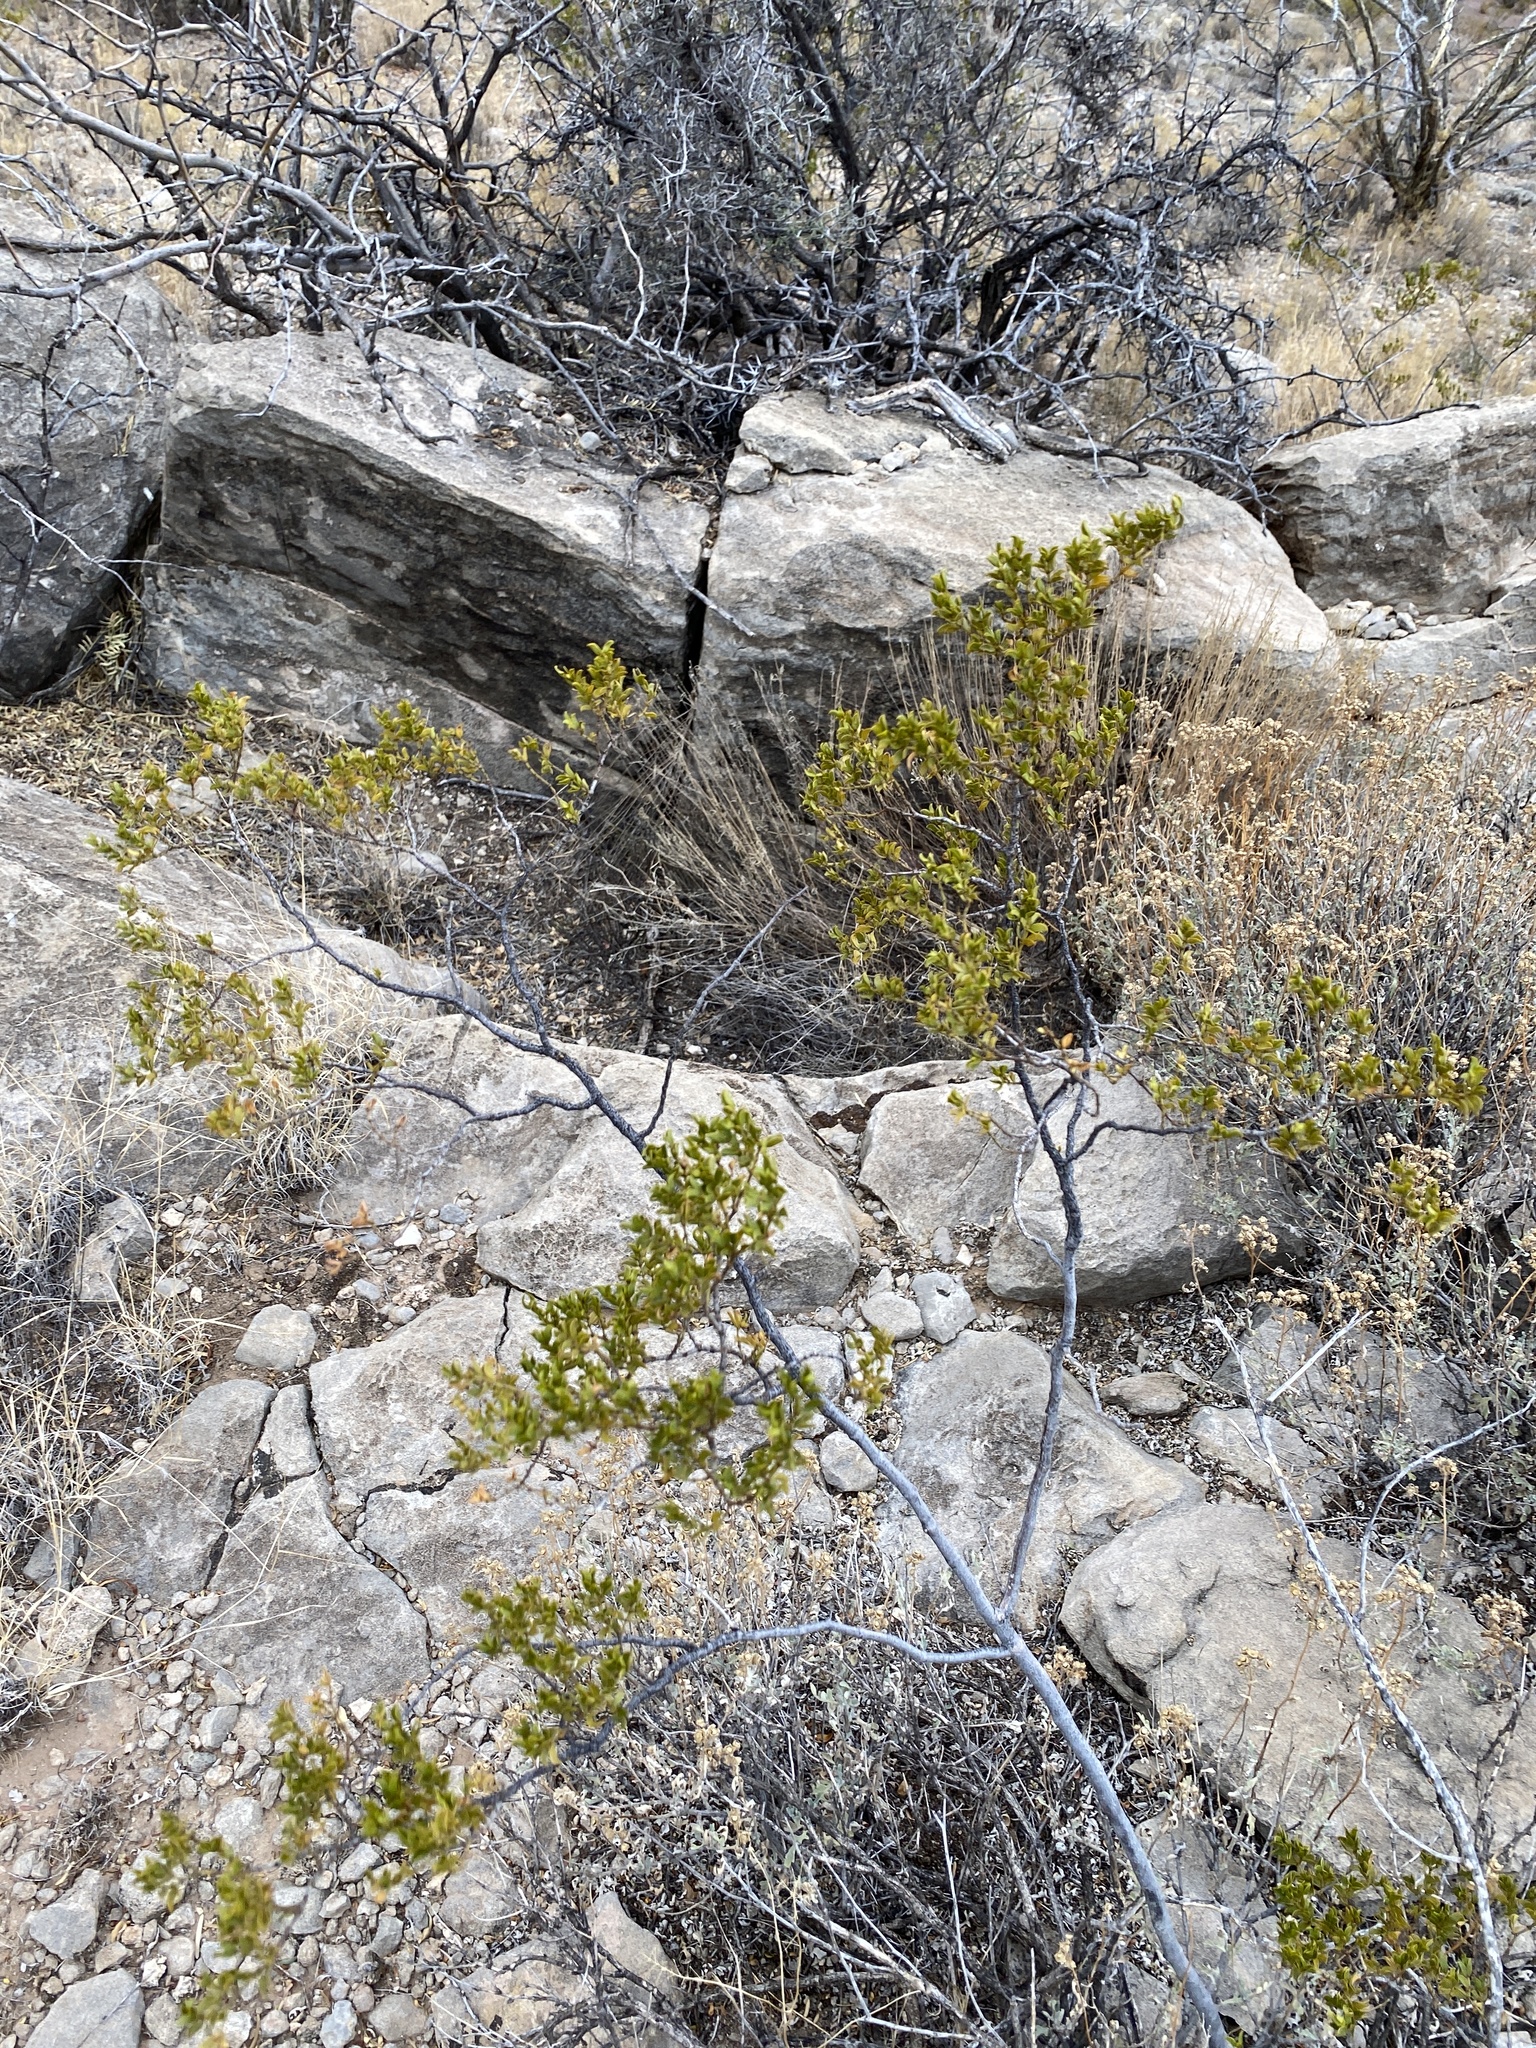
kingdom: Plantae
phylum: Tracheophyta
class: Magnoliopsida
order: Zygophyllales
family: Zygophyllaceae
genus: Larrea
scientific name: Larrea tridentata
